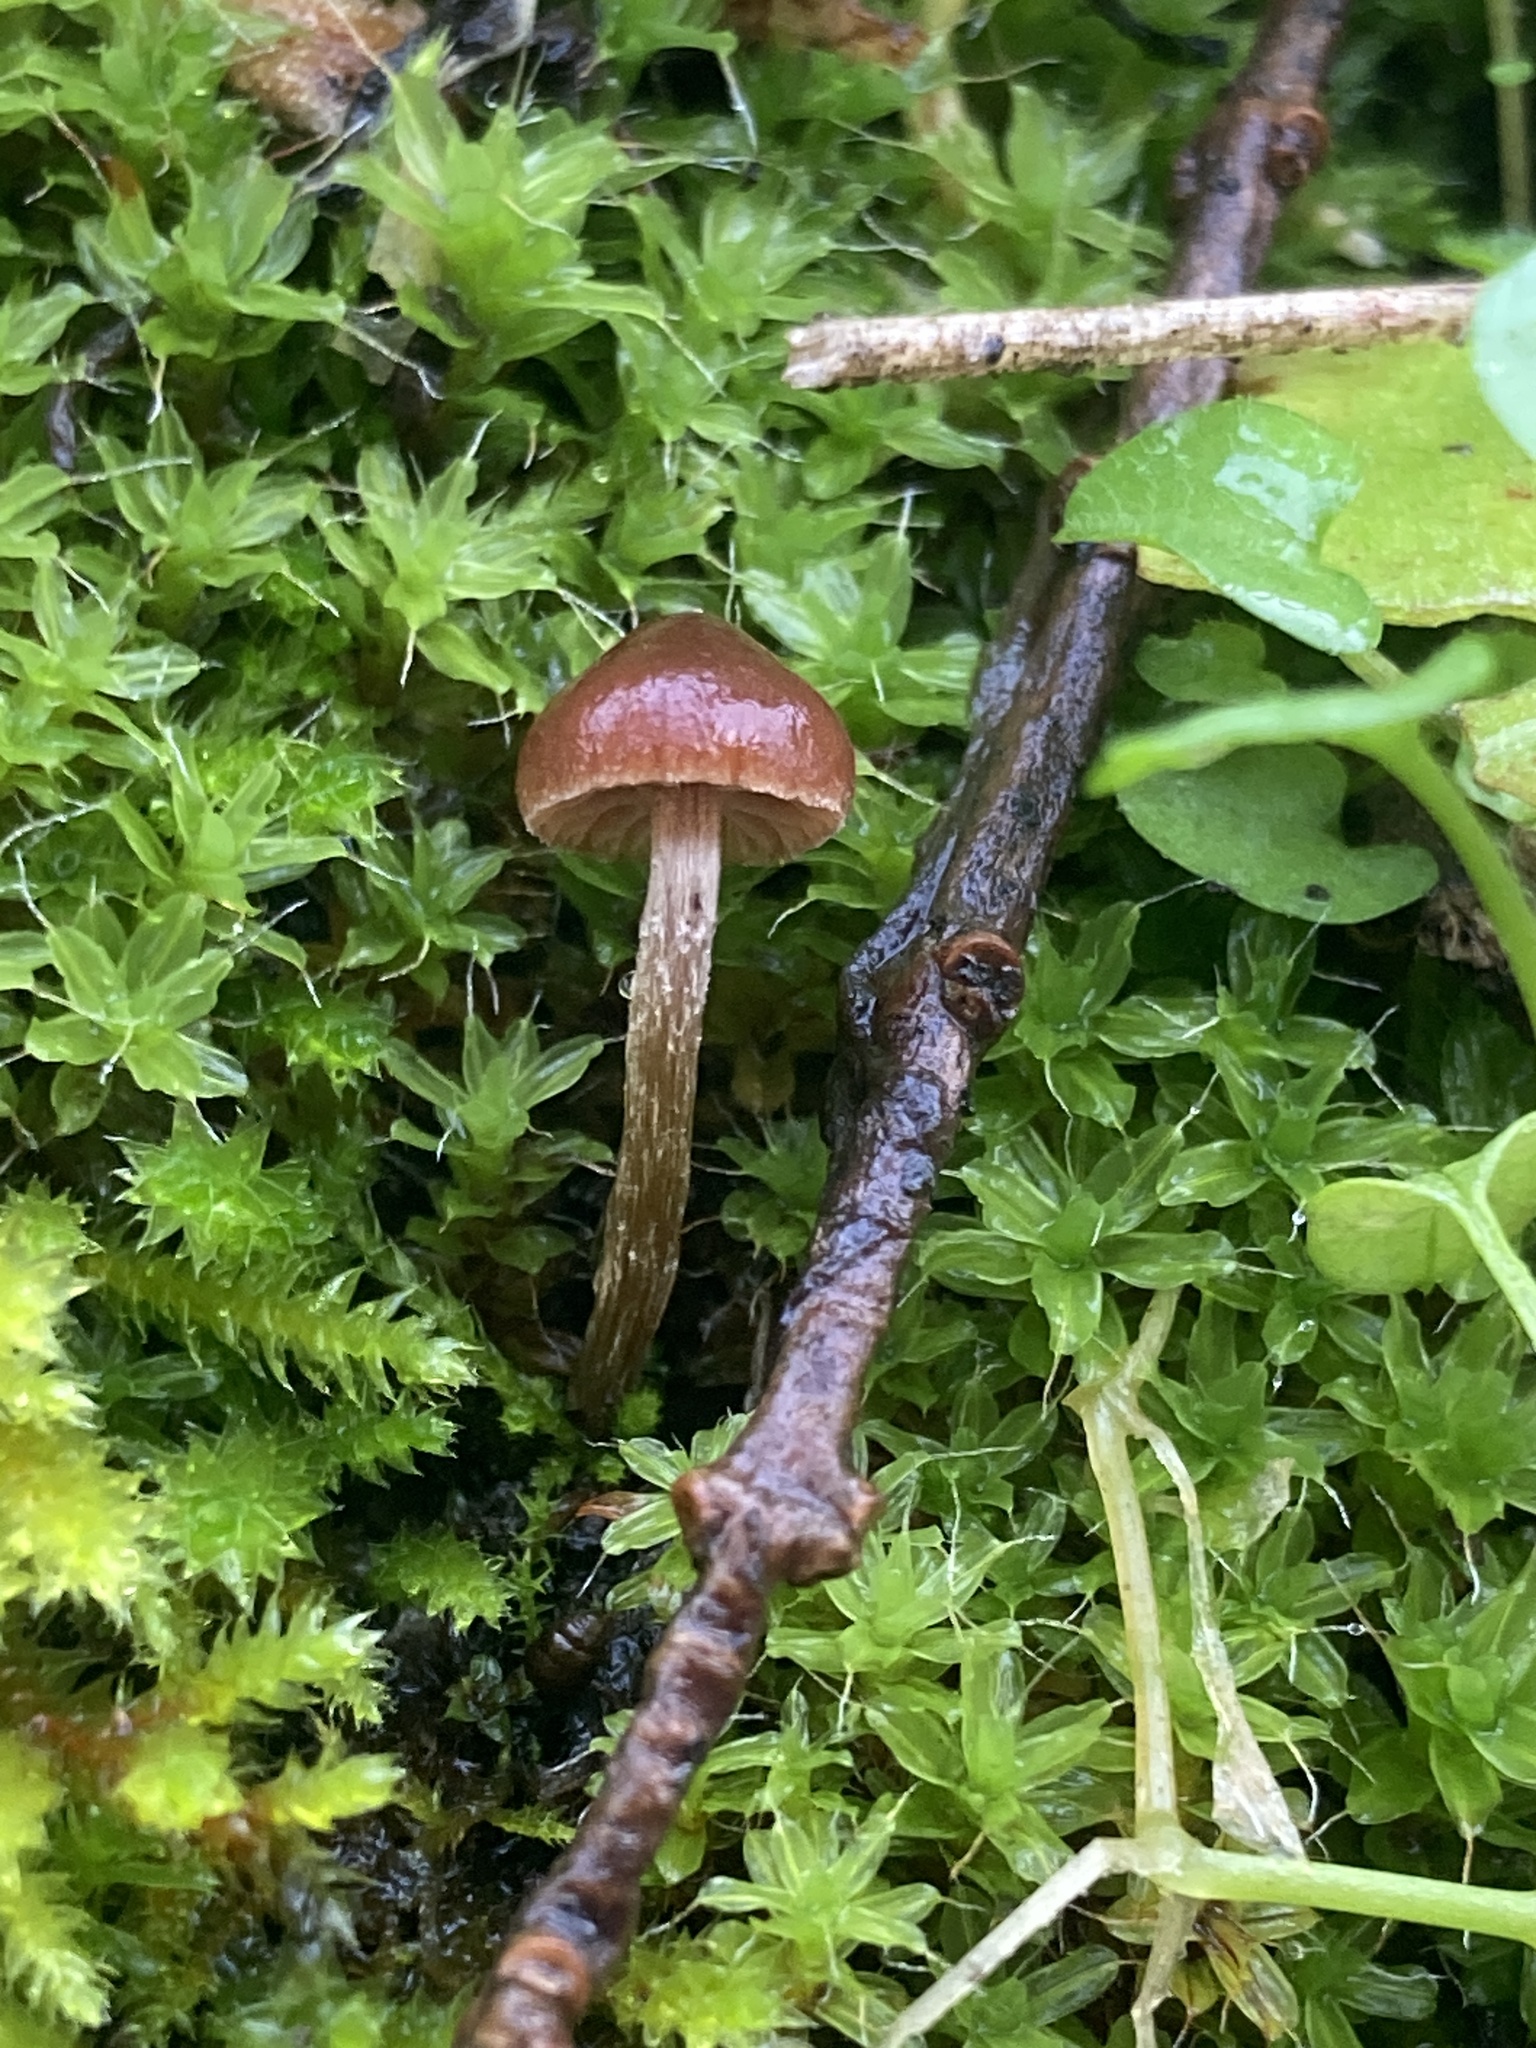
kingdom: Fungi
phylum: Basidiomycota
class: Agaricomycetes
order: Agaricales
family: Strophariaceae
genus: Deconica
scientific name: Deconica montana
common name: Mountain moss deconica
